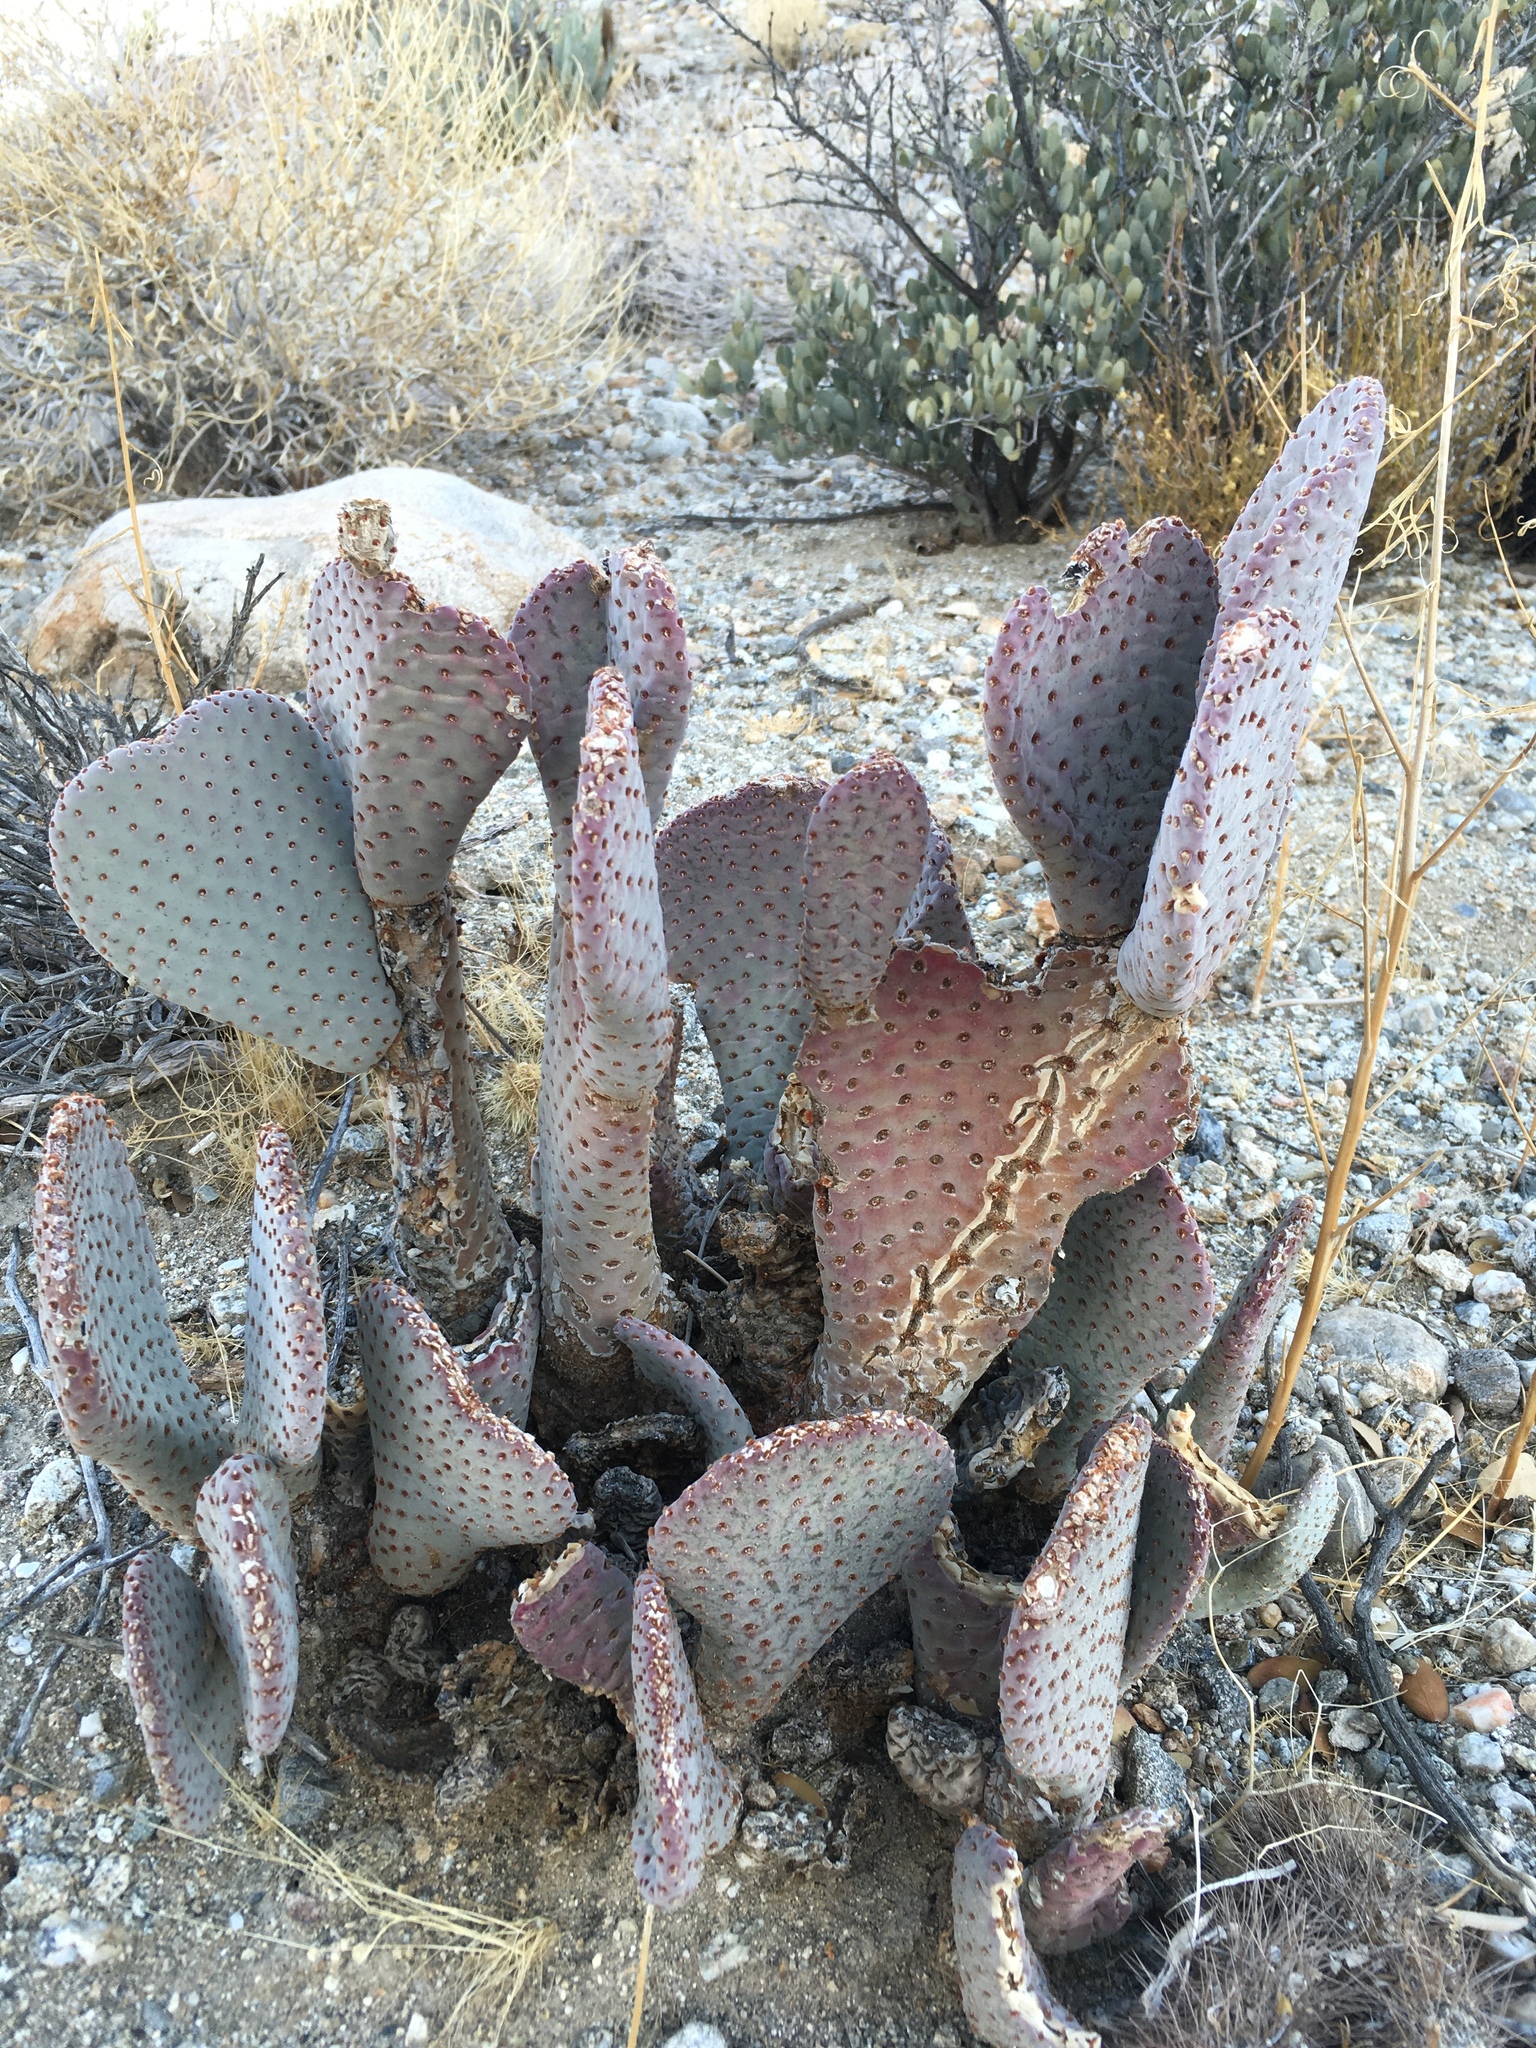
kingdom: Plantae
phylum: Tracheophyta
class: Magnoliopsida
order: Caryophyllales
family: Cactaceae
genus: Opuntia
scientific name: Opuntia basilaris
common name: Beavertail prickly-pear
